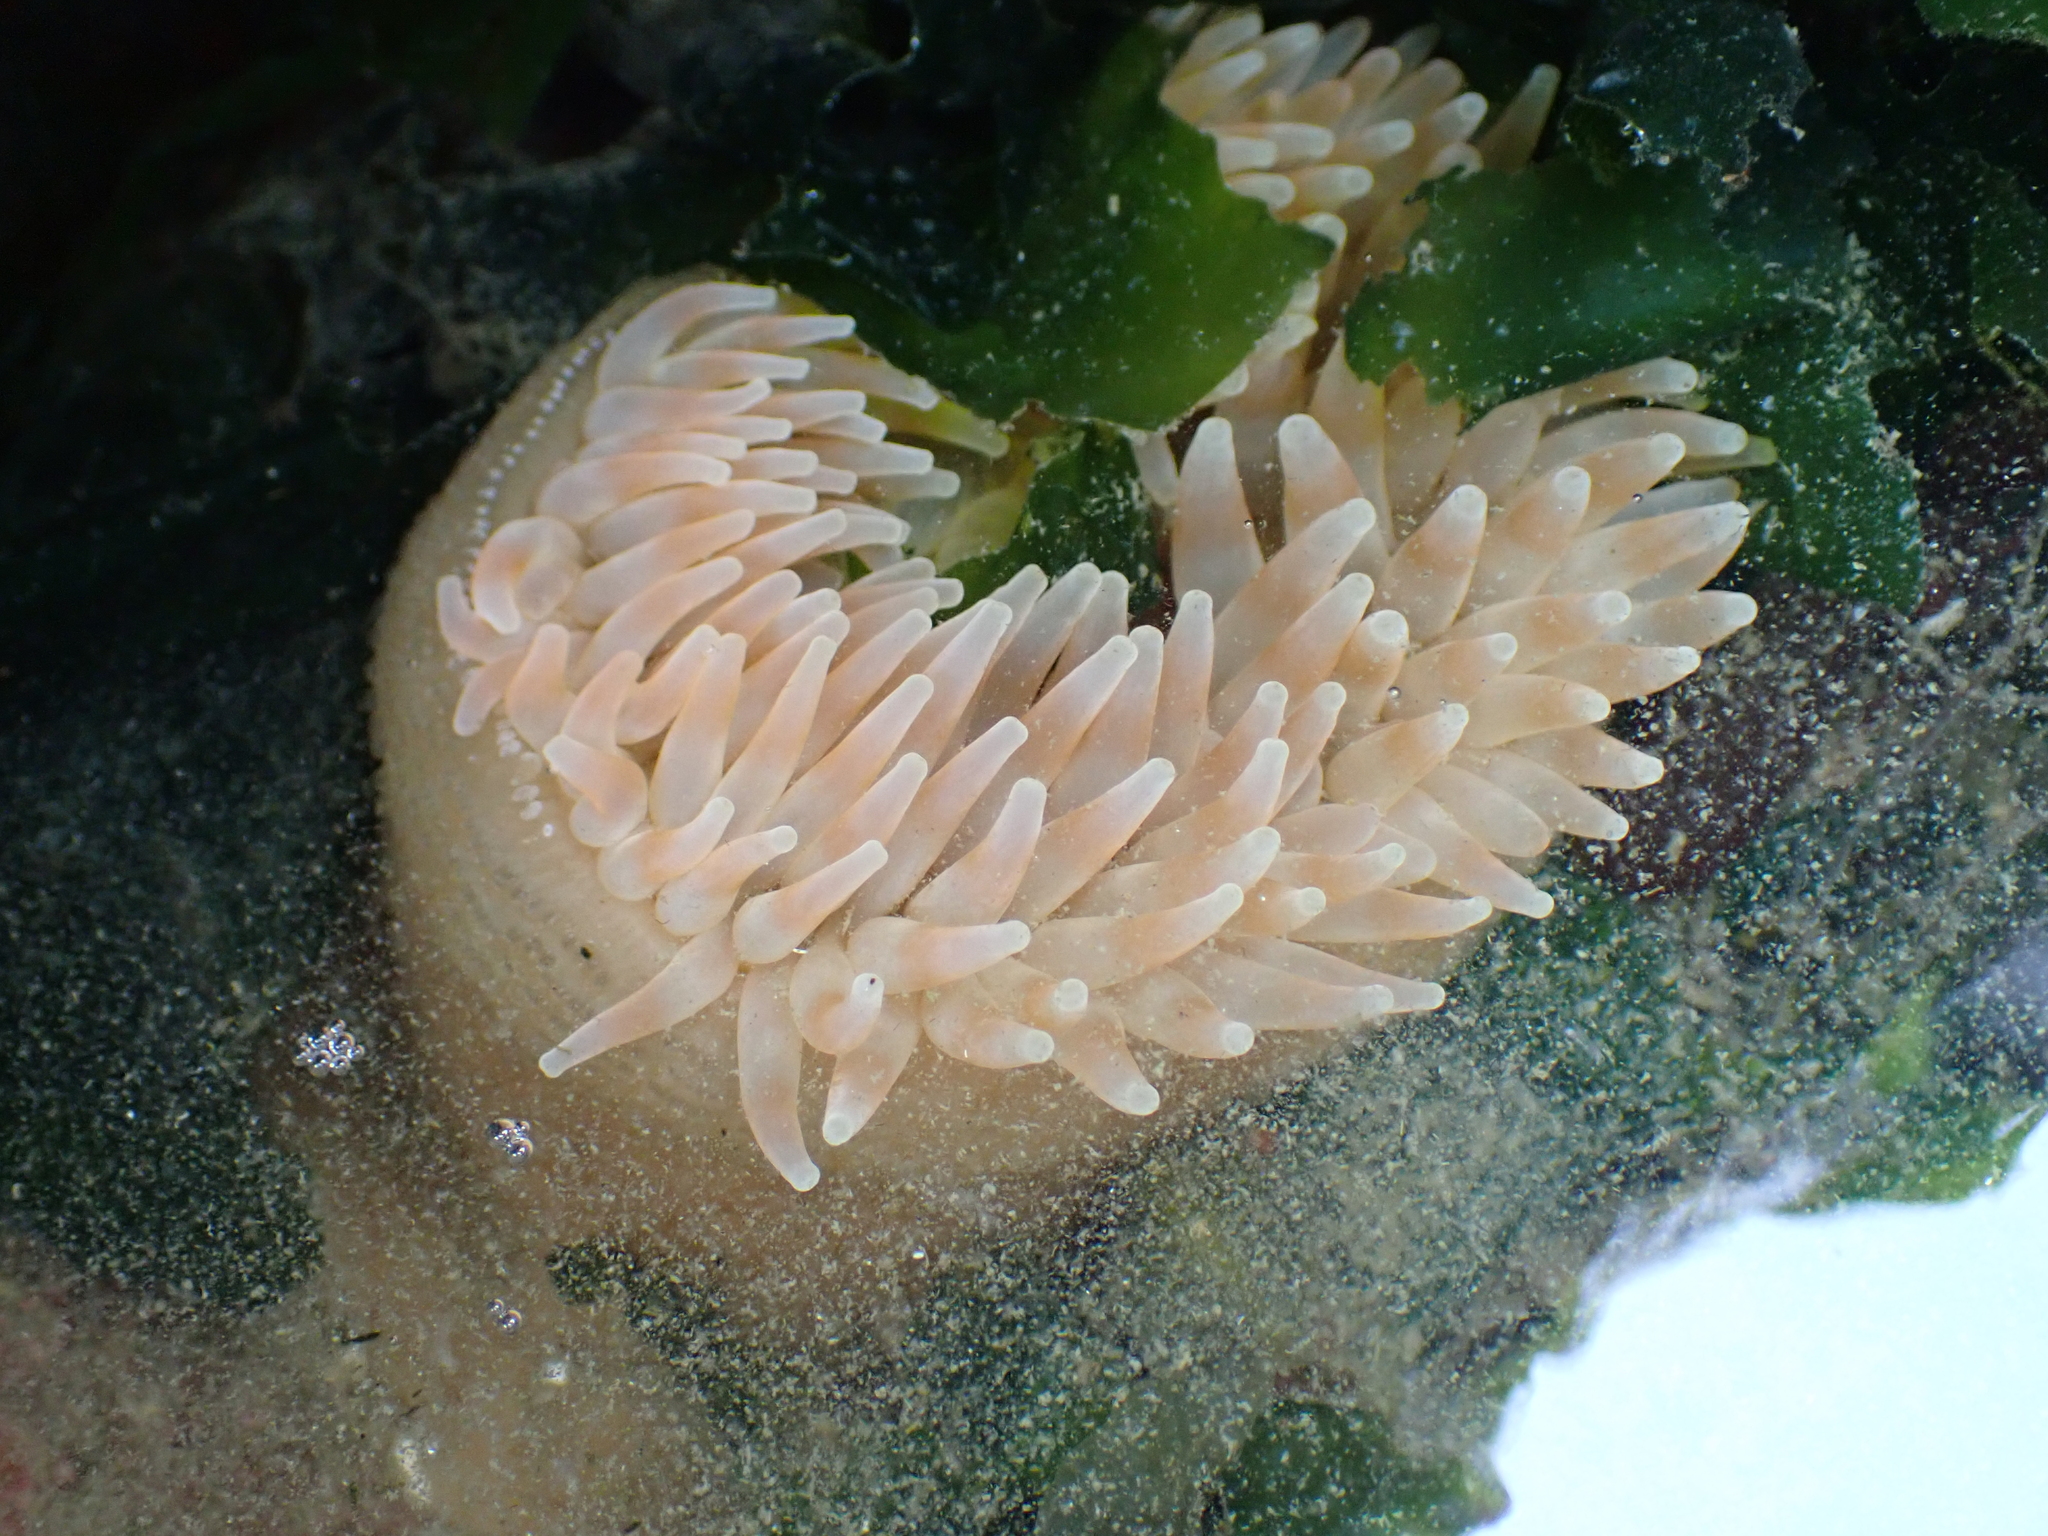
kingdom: Animalia
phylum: Cnidaria
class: Anthozoa
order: Actiniaria
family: Actiniidae
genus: Urticina
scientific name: Urticina grebelnyi
